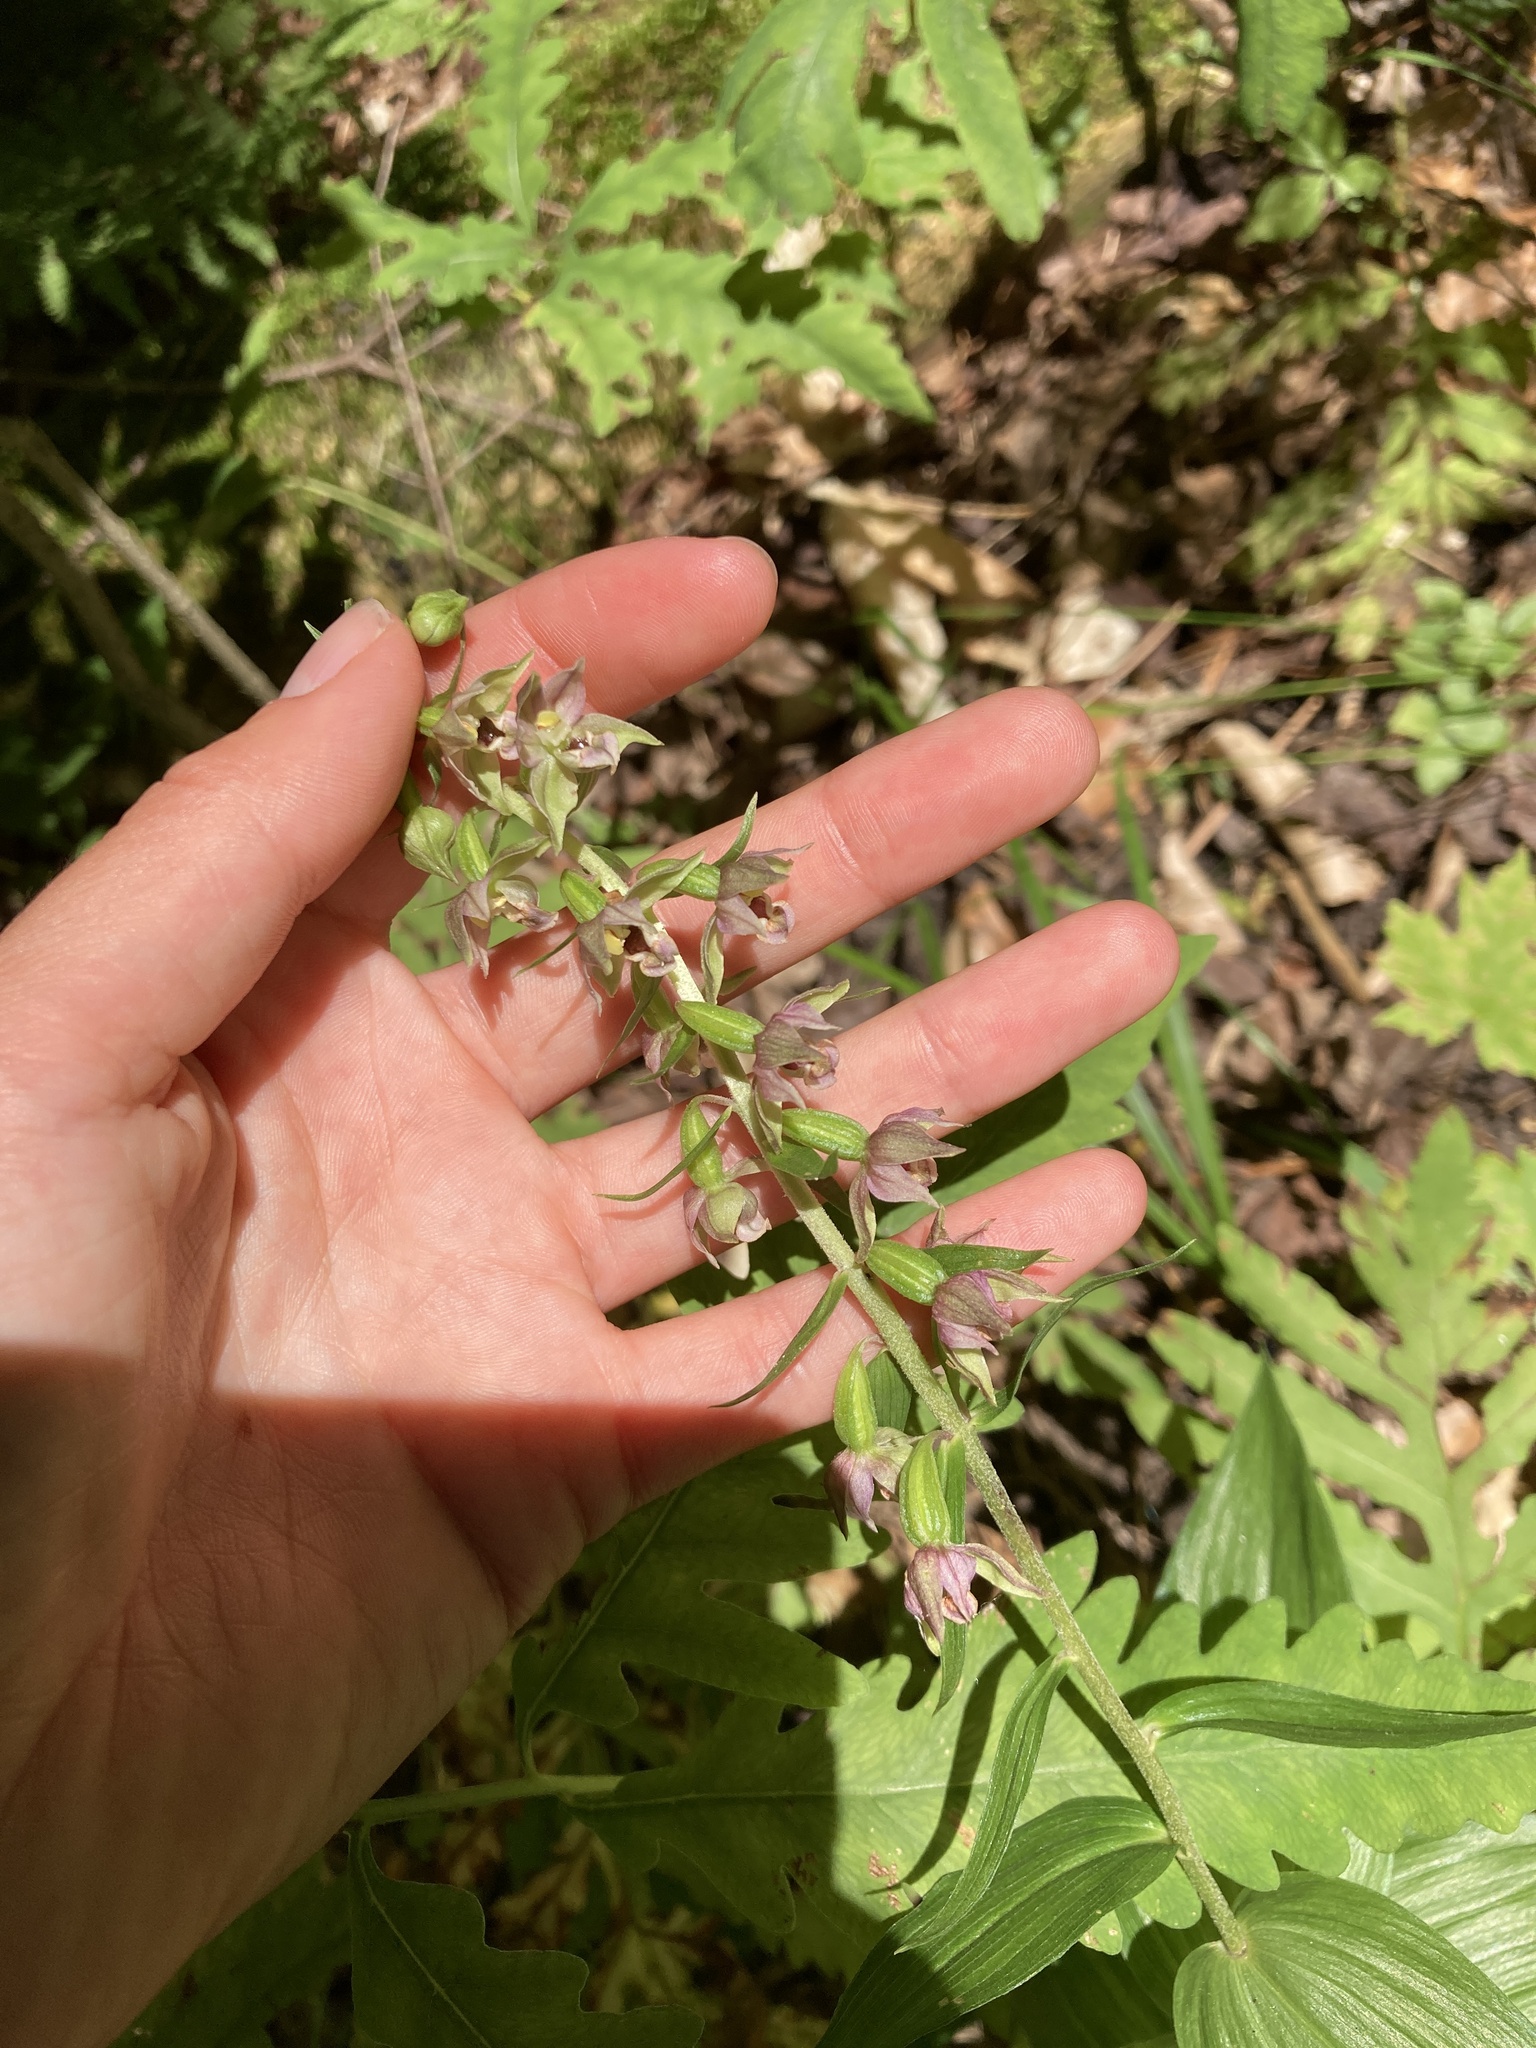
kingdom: Plantae
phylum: Tracheophyta
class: Liliopsida
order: Asparagales
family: Orchidaceae
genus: Epipactis
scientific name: Epipactis helleborine
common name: Broad-leaved helleborine
